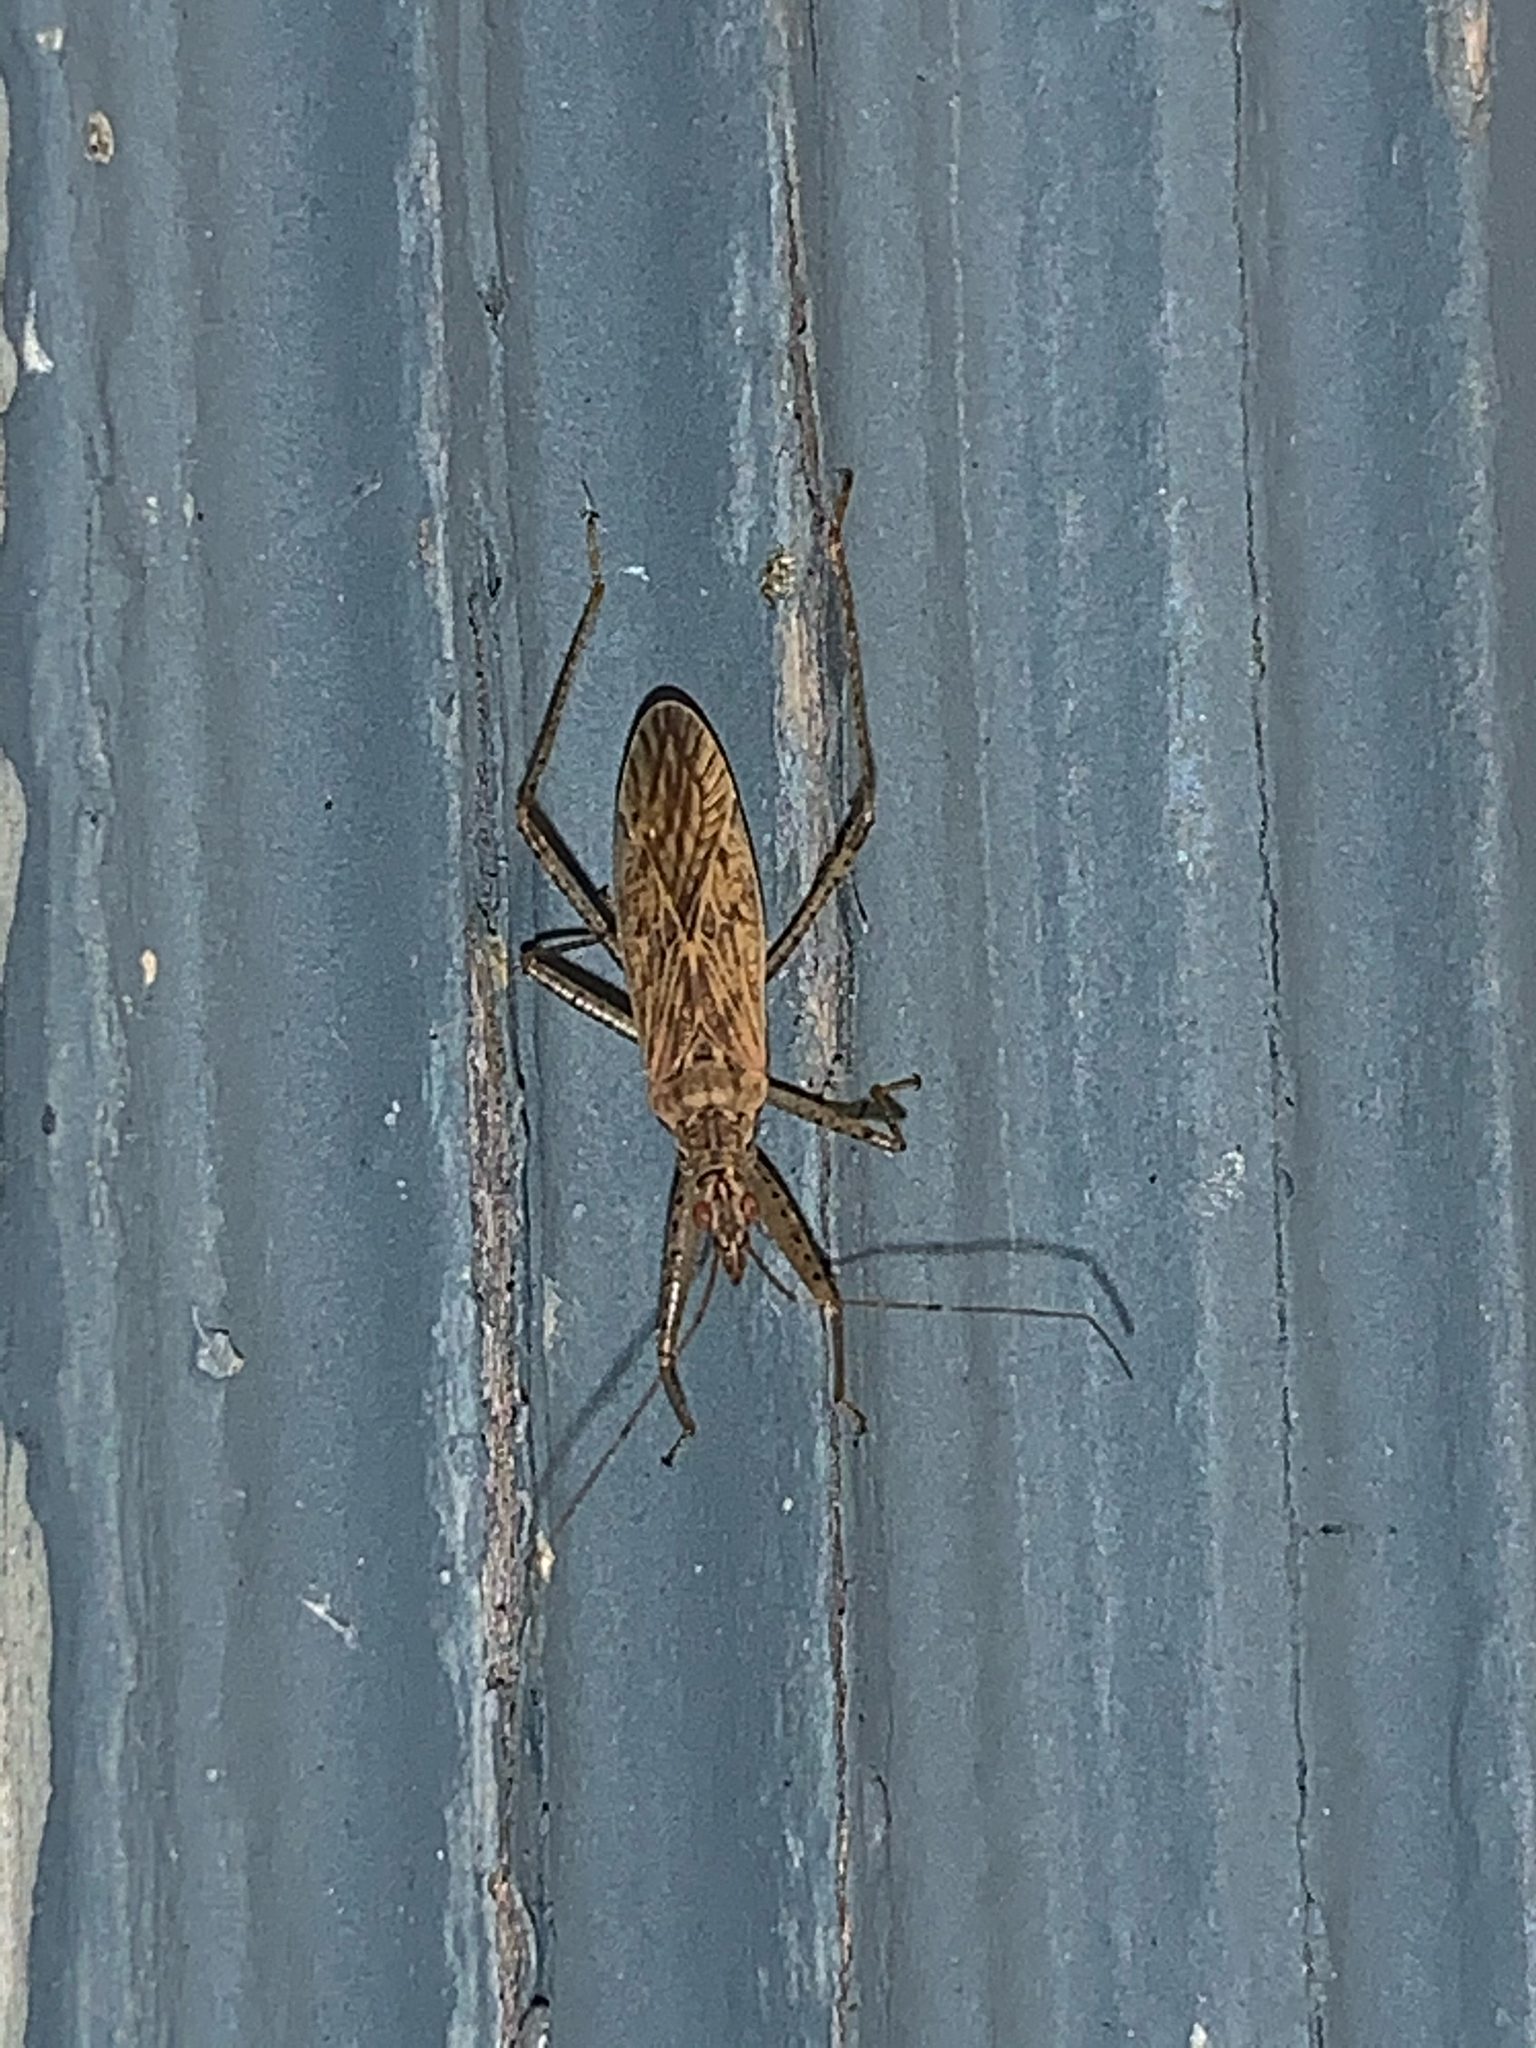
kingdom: Animalia
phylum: Arthropoda
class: Insecta
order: Hemiptera
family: Nabidae
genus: Nabis
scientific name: Nabis roseipennis
